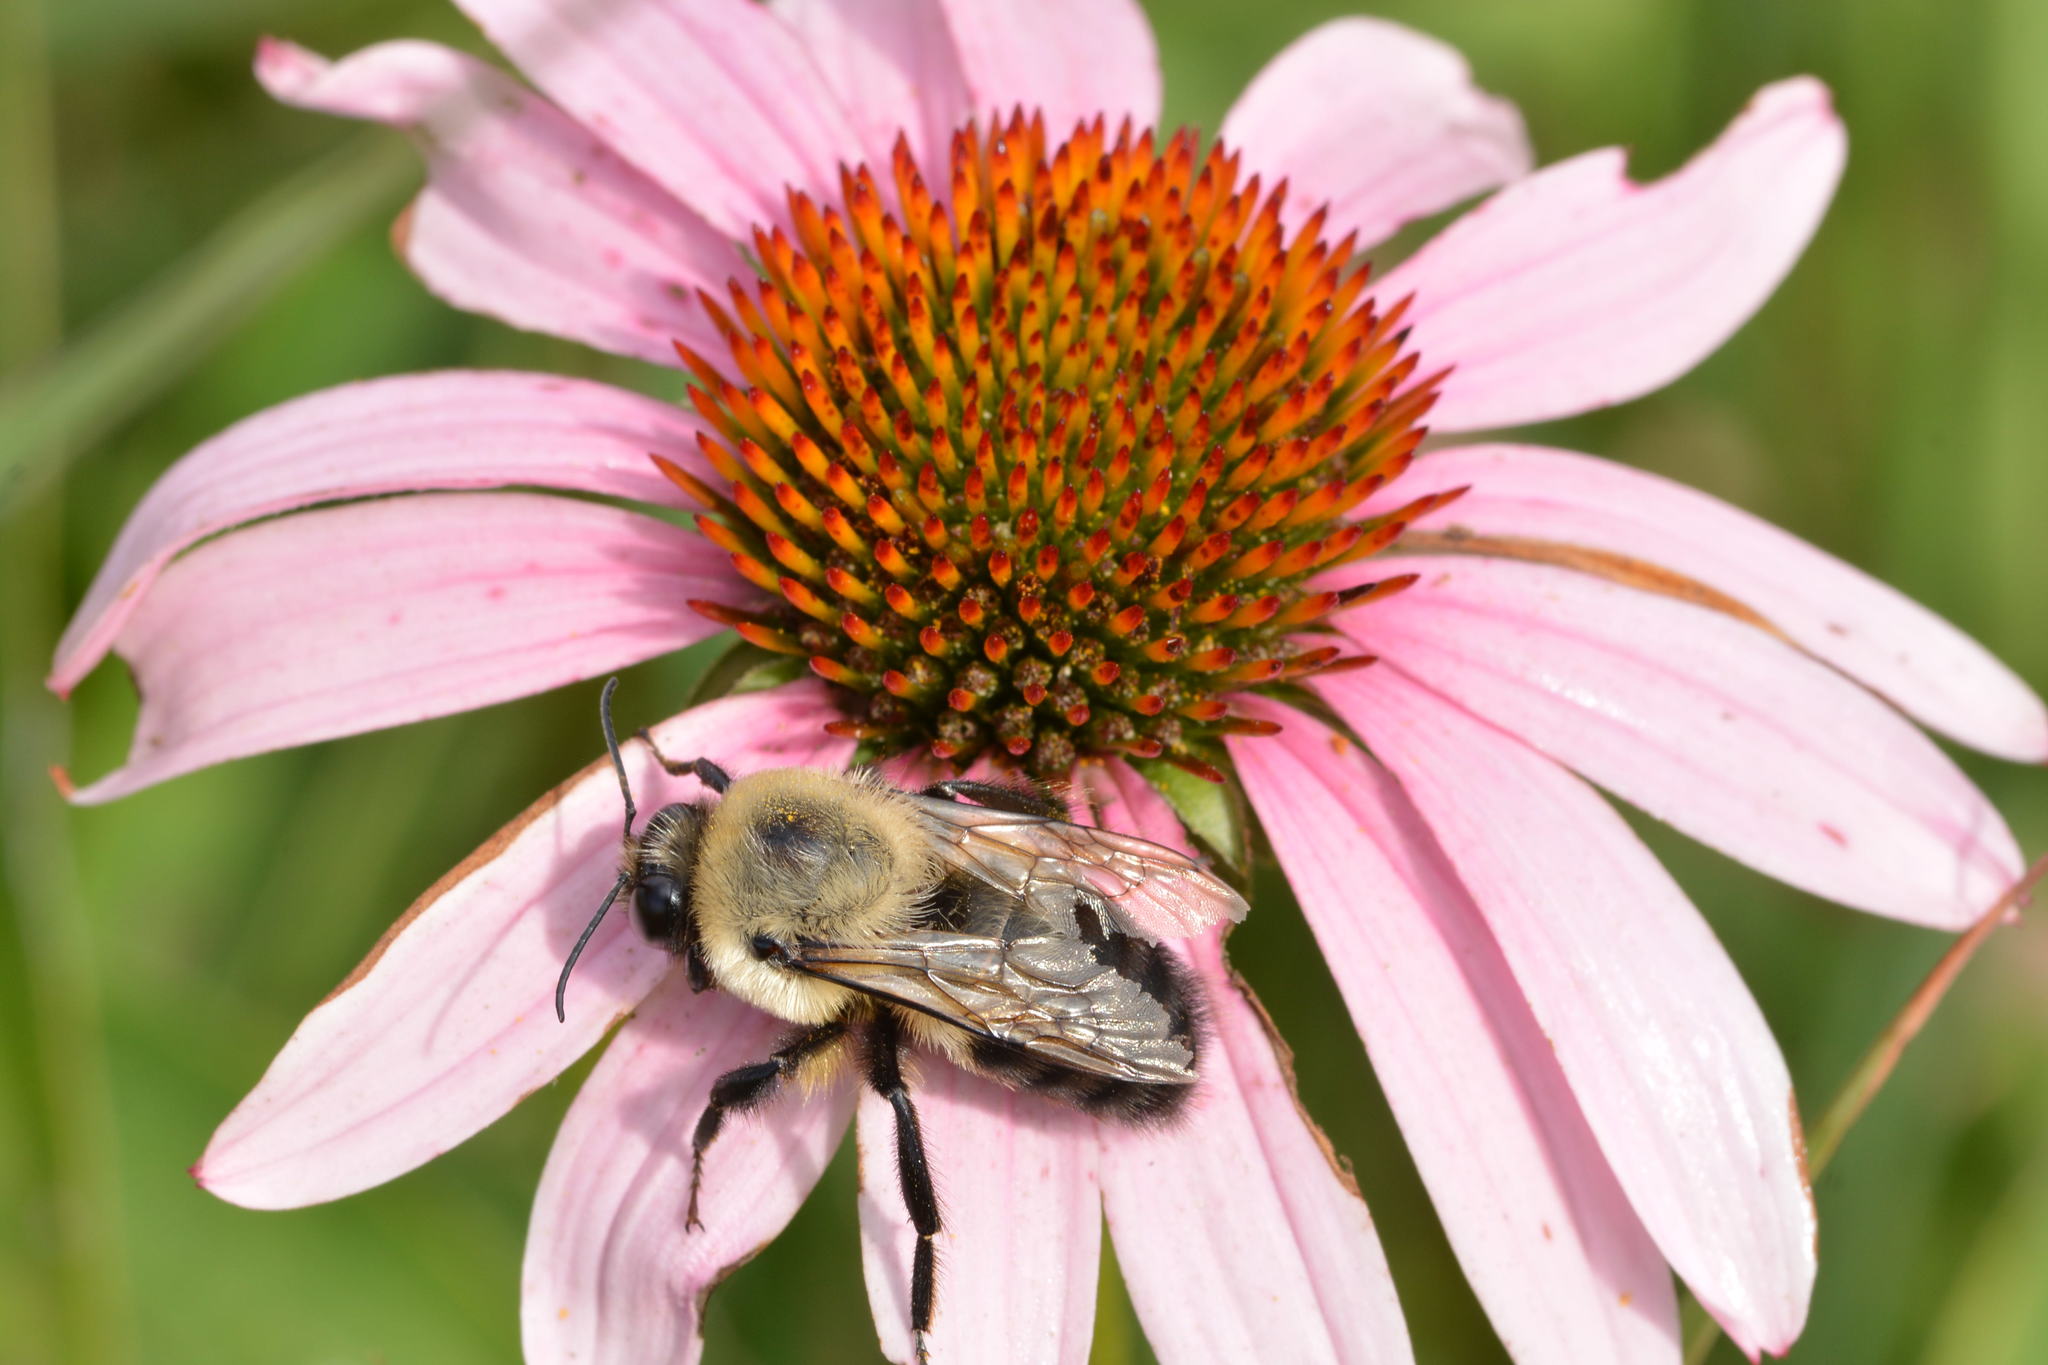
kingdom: Animalia
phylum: Arthropoda
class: Insecta
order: Hymenoptera
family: Apidae
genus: Bombus
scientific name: Bombus griseocollis
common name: Brown-belted bumble bee
